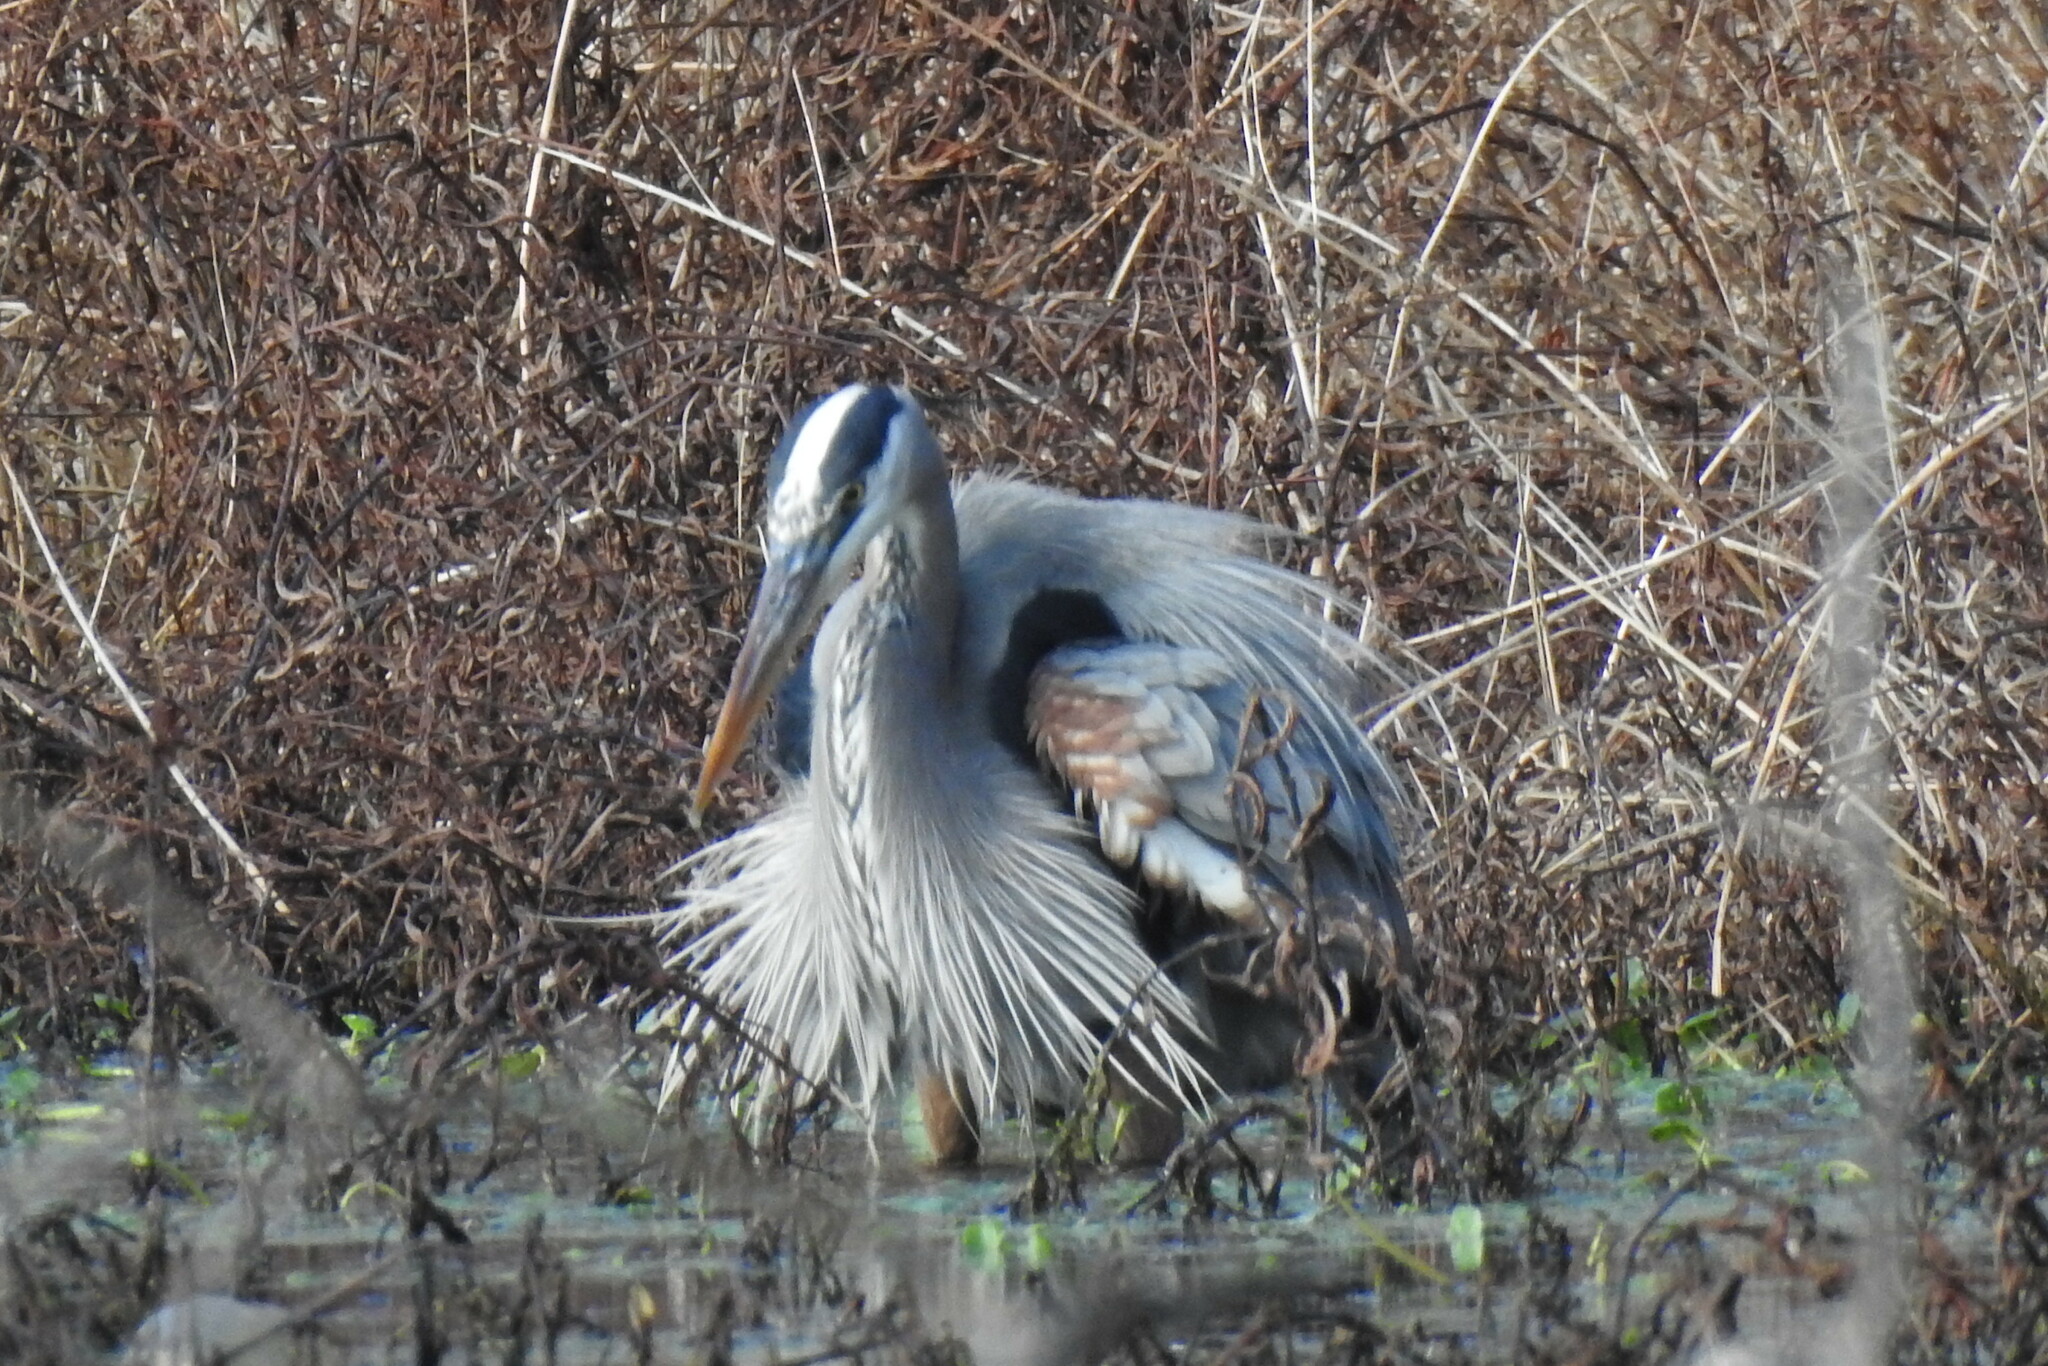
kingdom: Animalia
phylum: Chordata
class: Aves
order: Pelecaniformes
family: Ardeidae
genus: Ardea
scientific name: Ardea herodias
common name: Great blue heron
